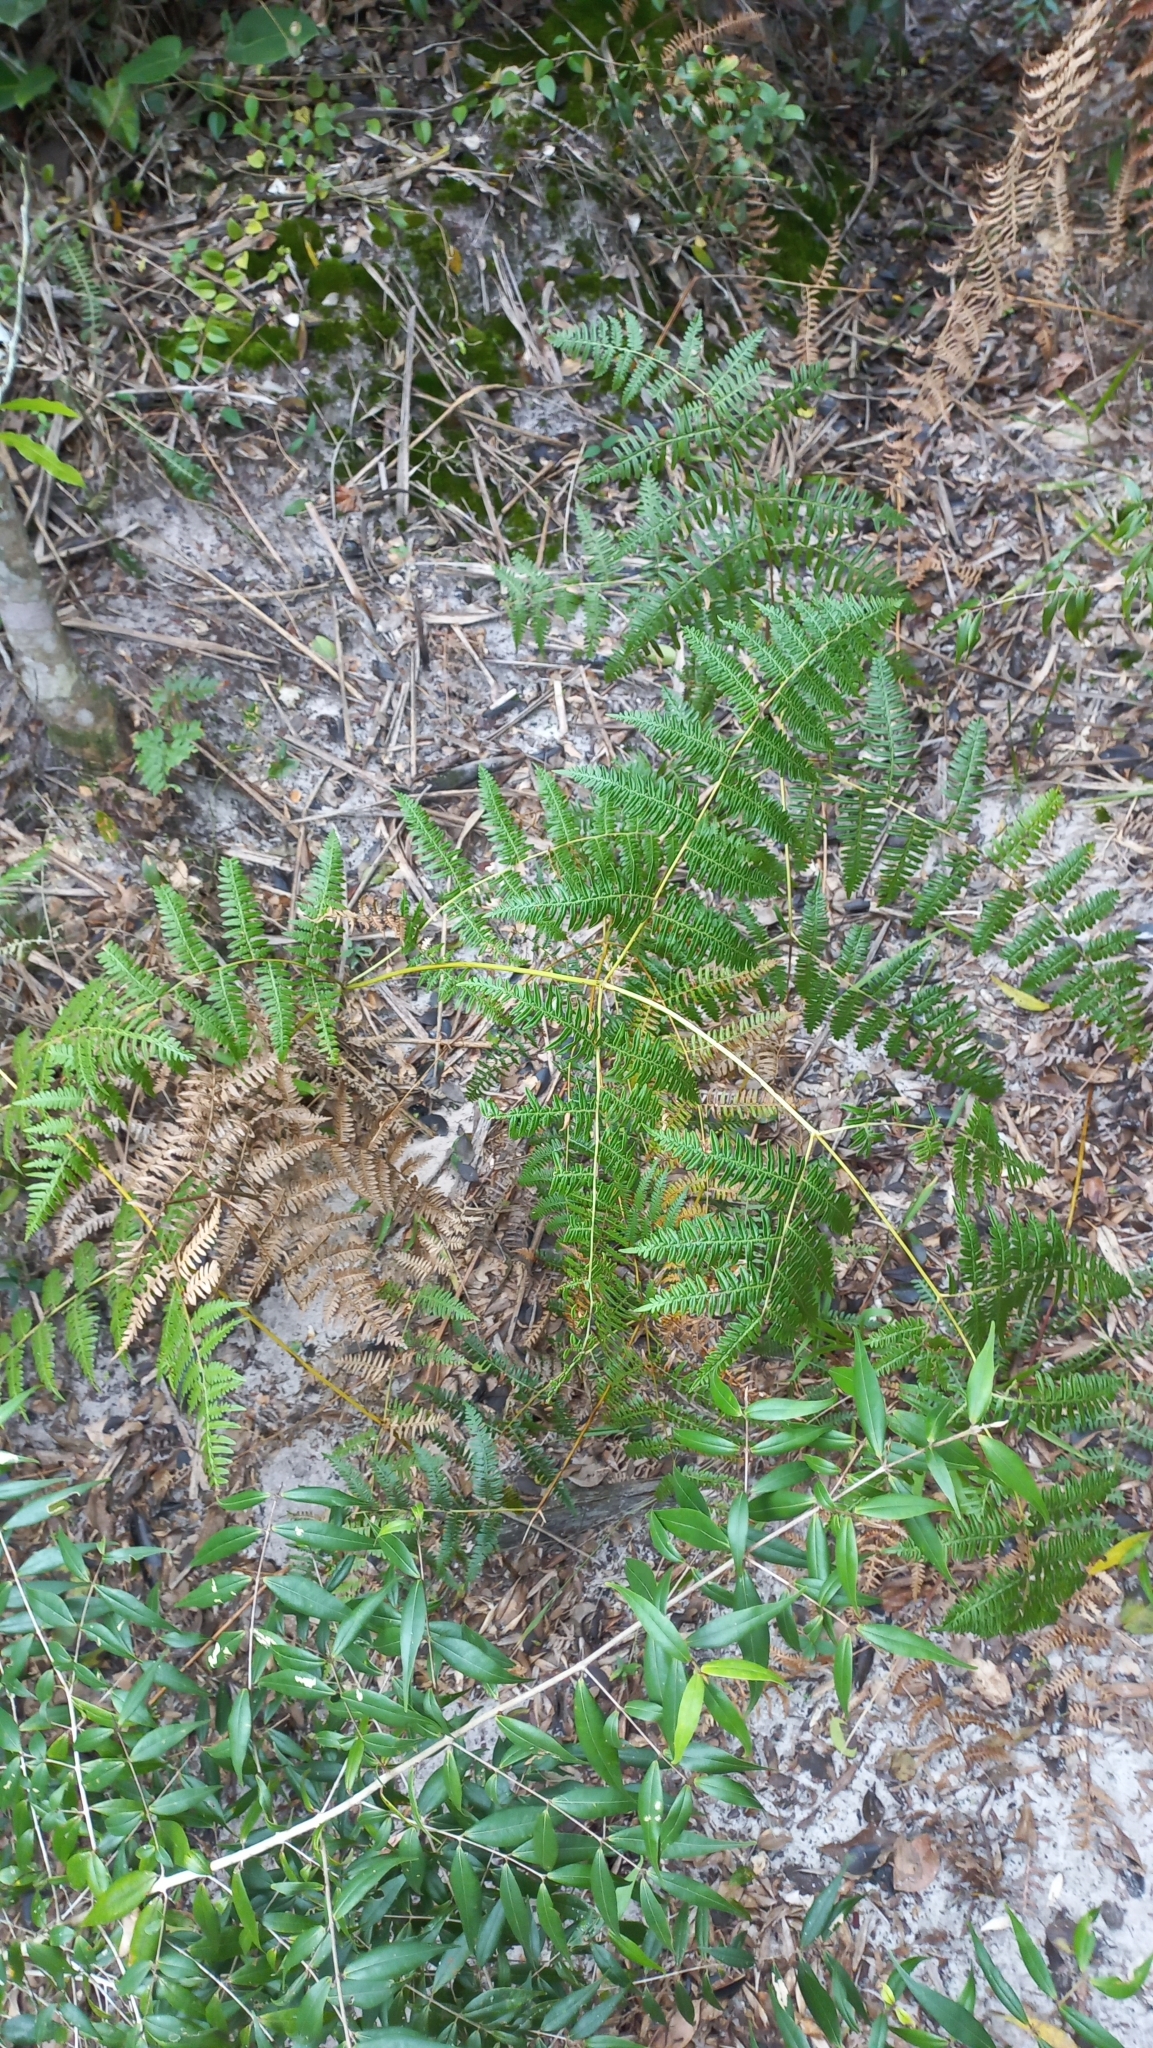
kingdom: Plantae
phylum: Tracheophyta
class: Polypodiopsida
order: Polypodiales
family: Dennstaedtiaceae
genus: Pteridium
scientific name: Pteridium esculentum
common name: Bracken fern
